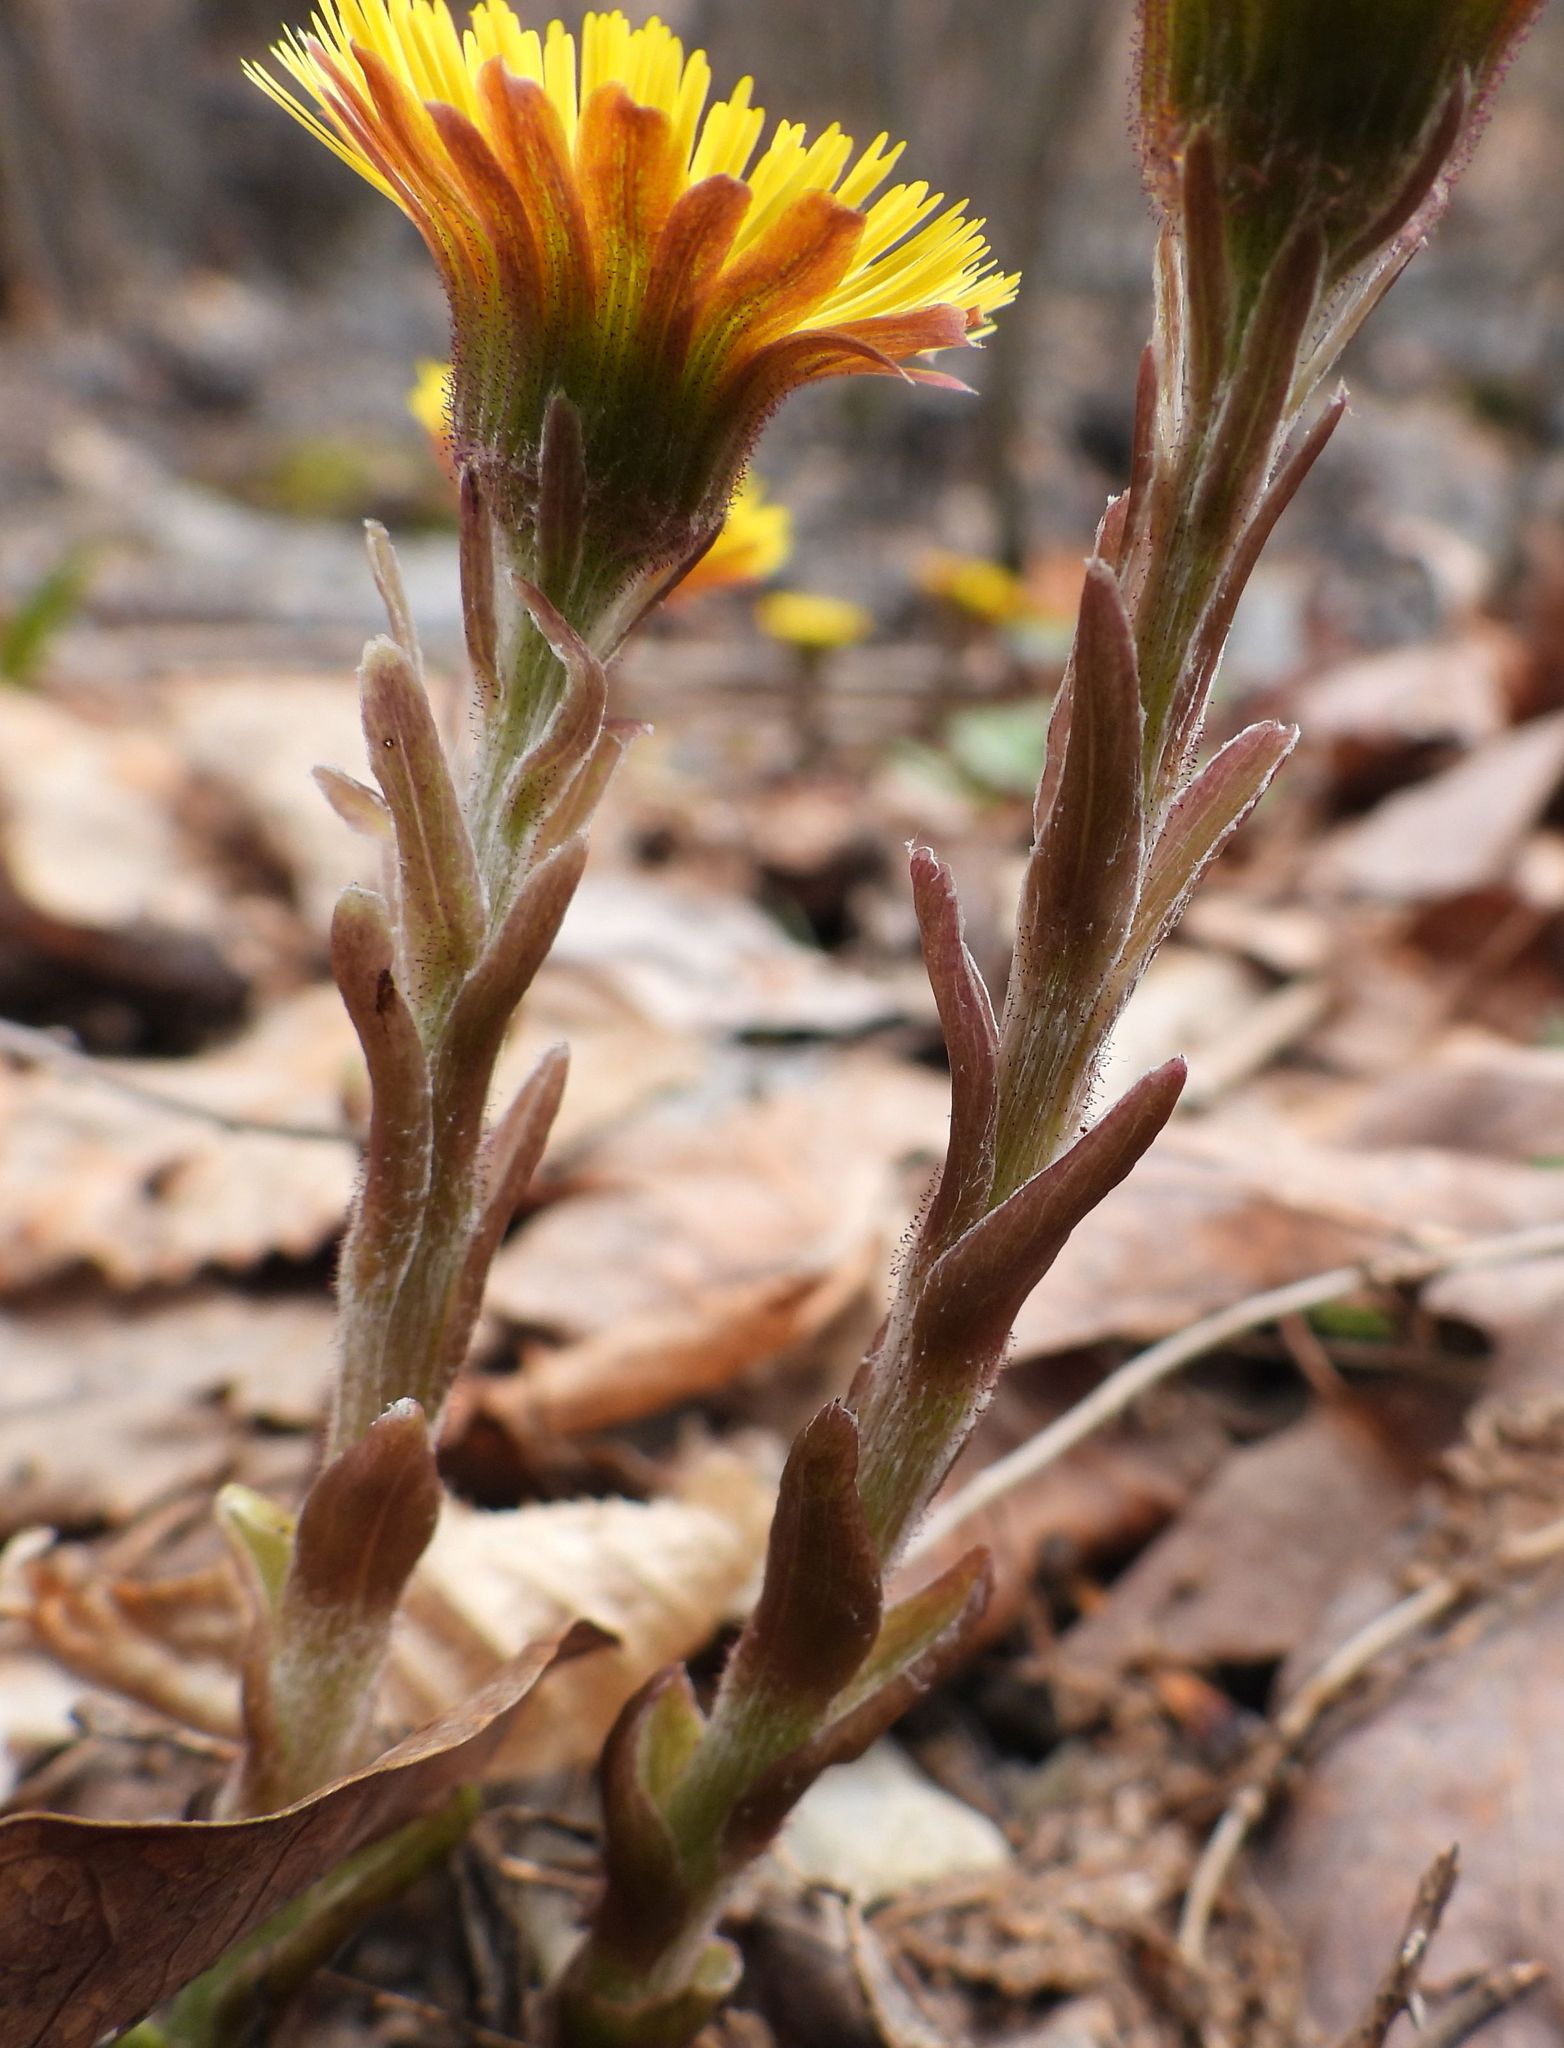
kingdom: Plantae
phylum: Tracheophyta
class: Magnoliopsida
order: Asterales
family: Asteraceae
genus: Tussilago
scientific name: Tussilago farfara
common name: Coltsfoot
